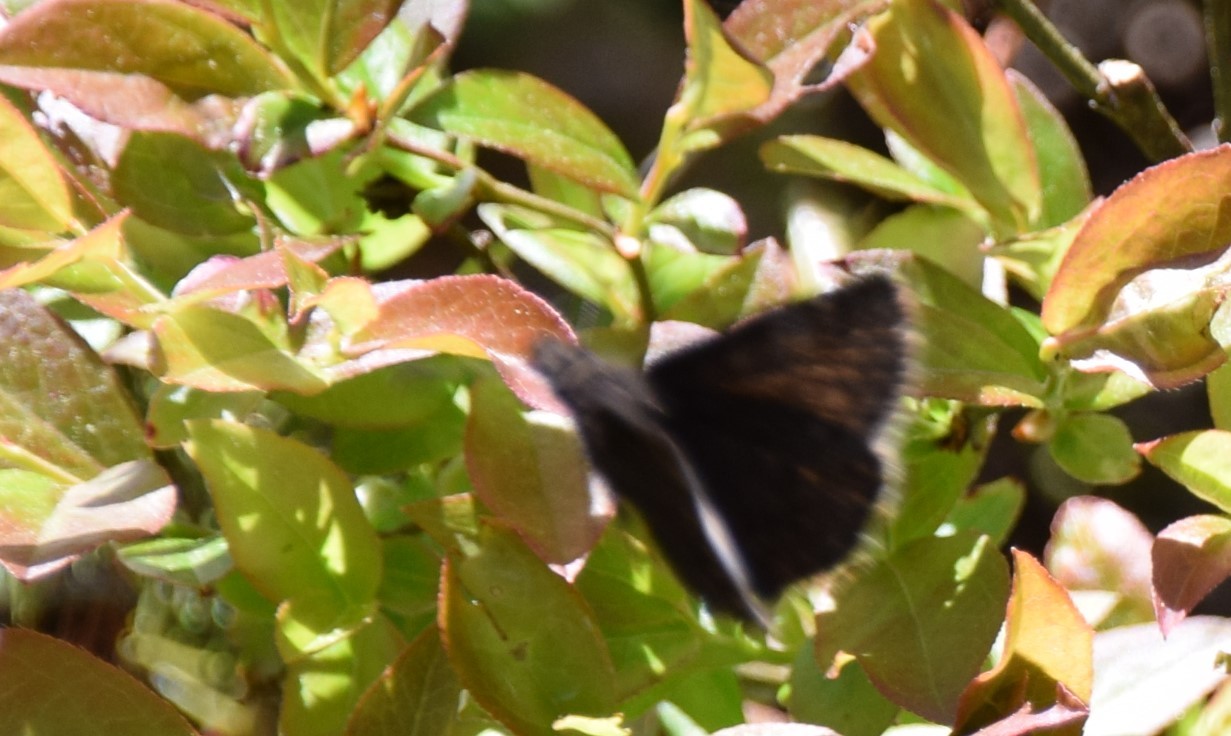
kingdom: Animalia
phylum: Arthropoda
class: Insecta
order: Lepidoptera
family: Hesperiidae
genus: Erynnis
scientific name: Erynnis icelus
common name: Dreamy duskywing
